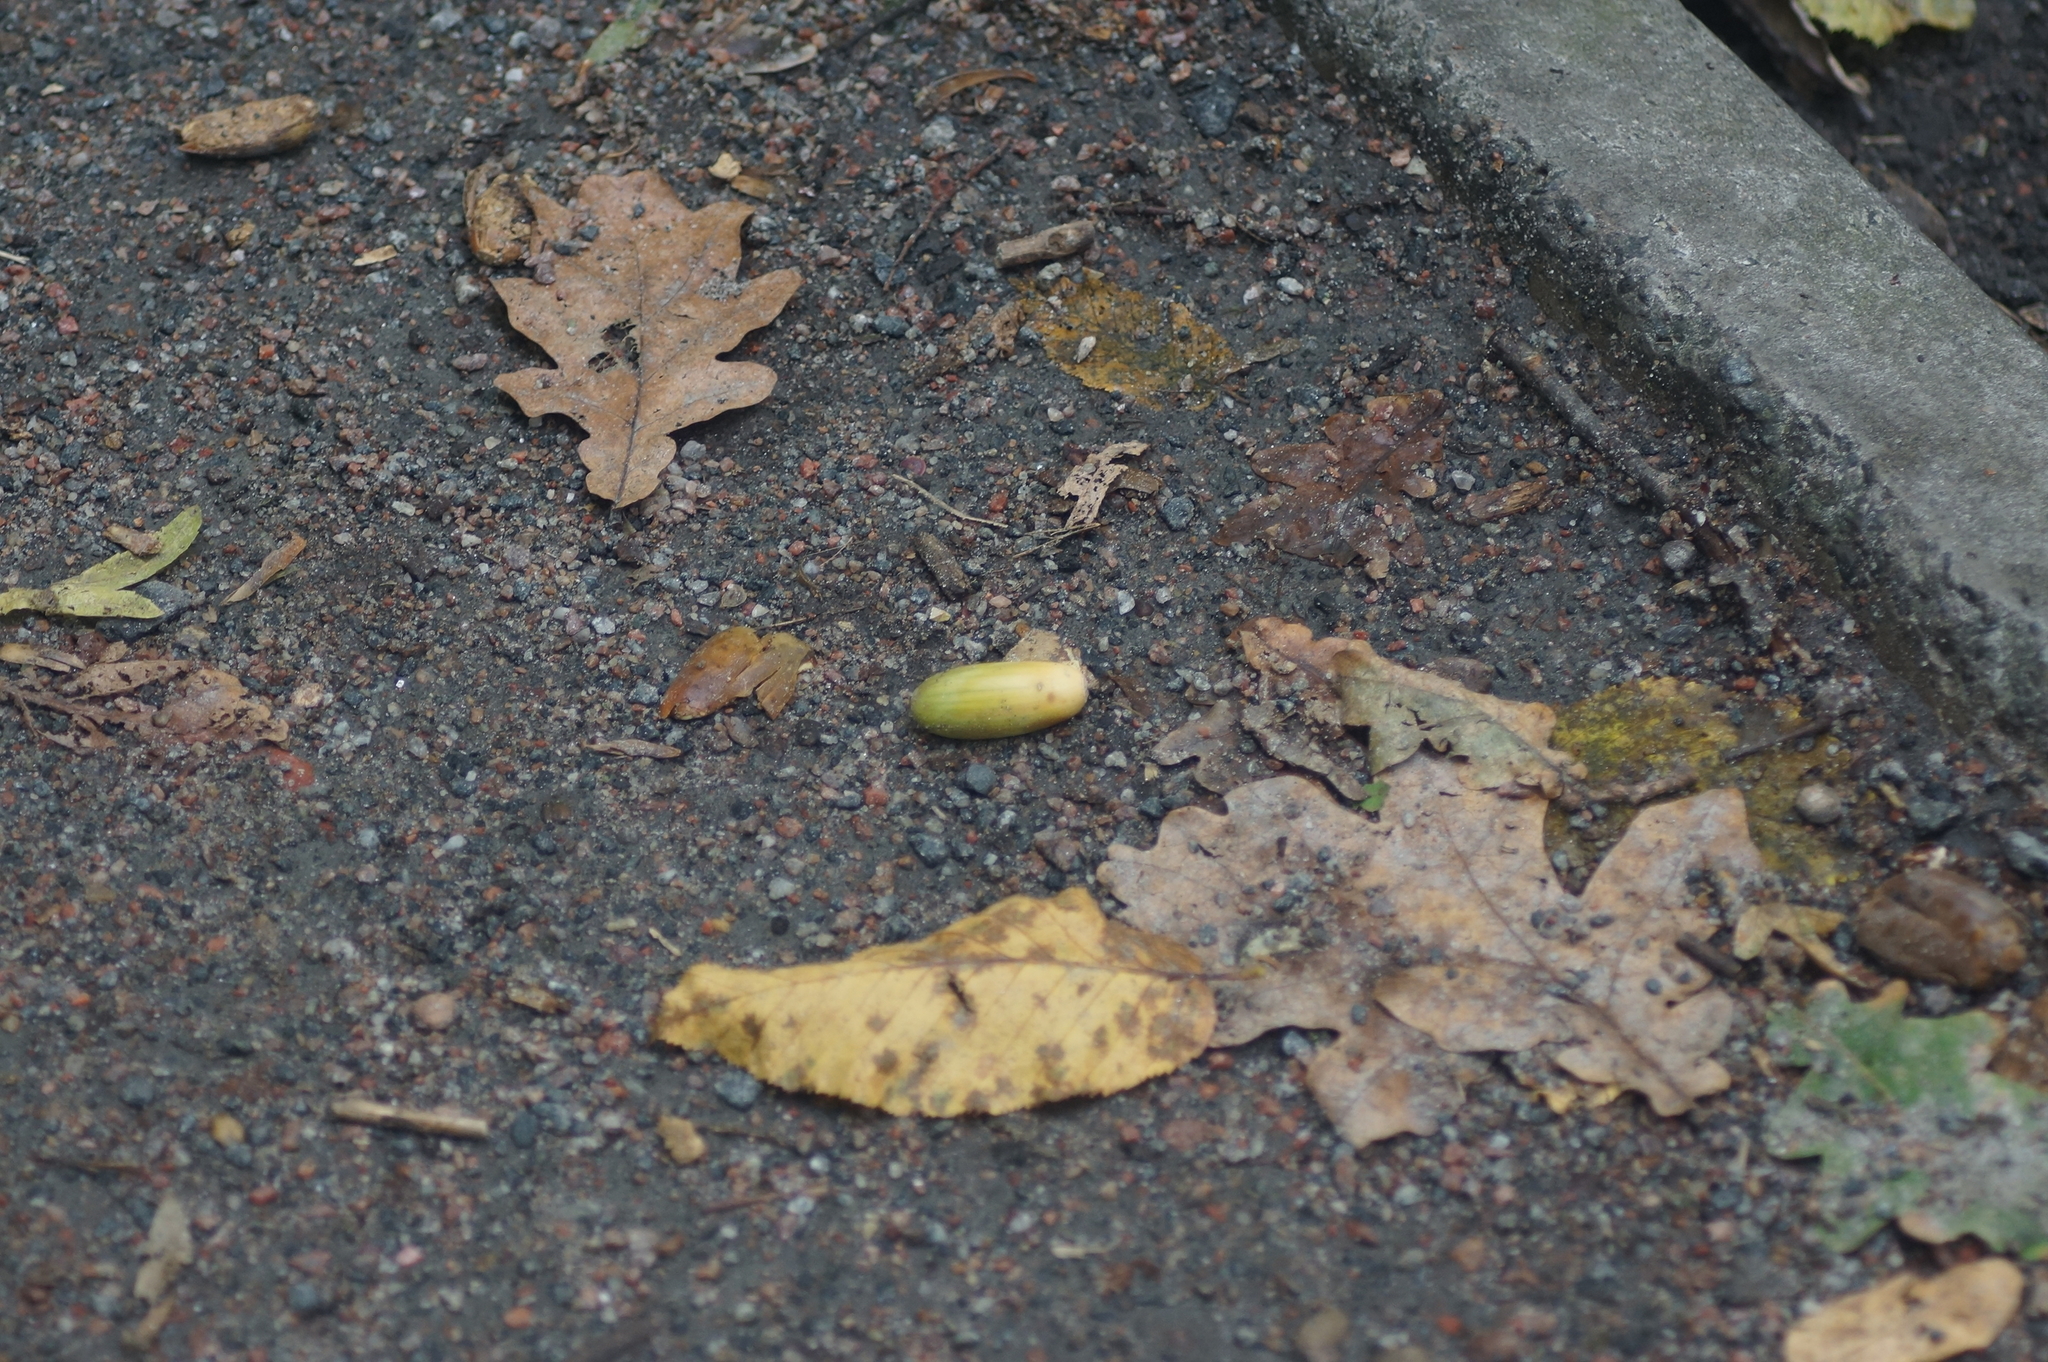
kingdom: Plantae
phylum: Tracheophyta
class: Magnoliopsida
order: Fagales
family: Fagaceae
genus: Quercus
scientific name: Quercus robur
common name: Pedunculate oak
